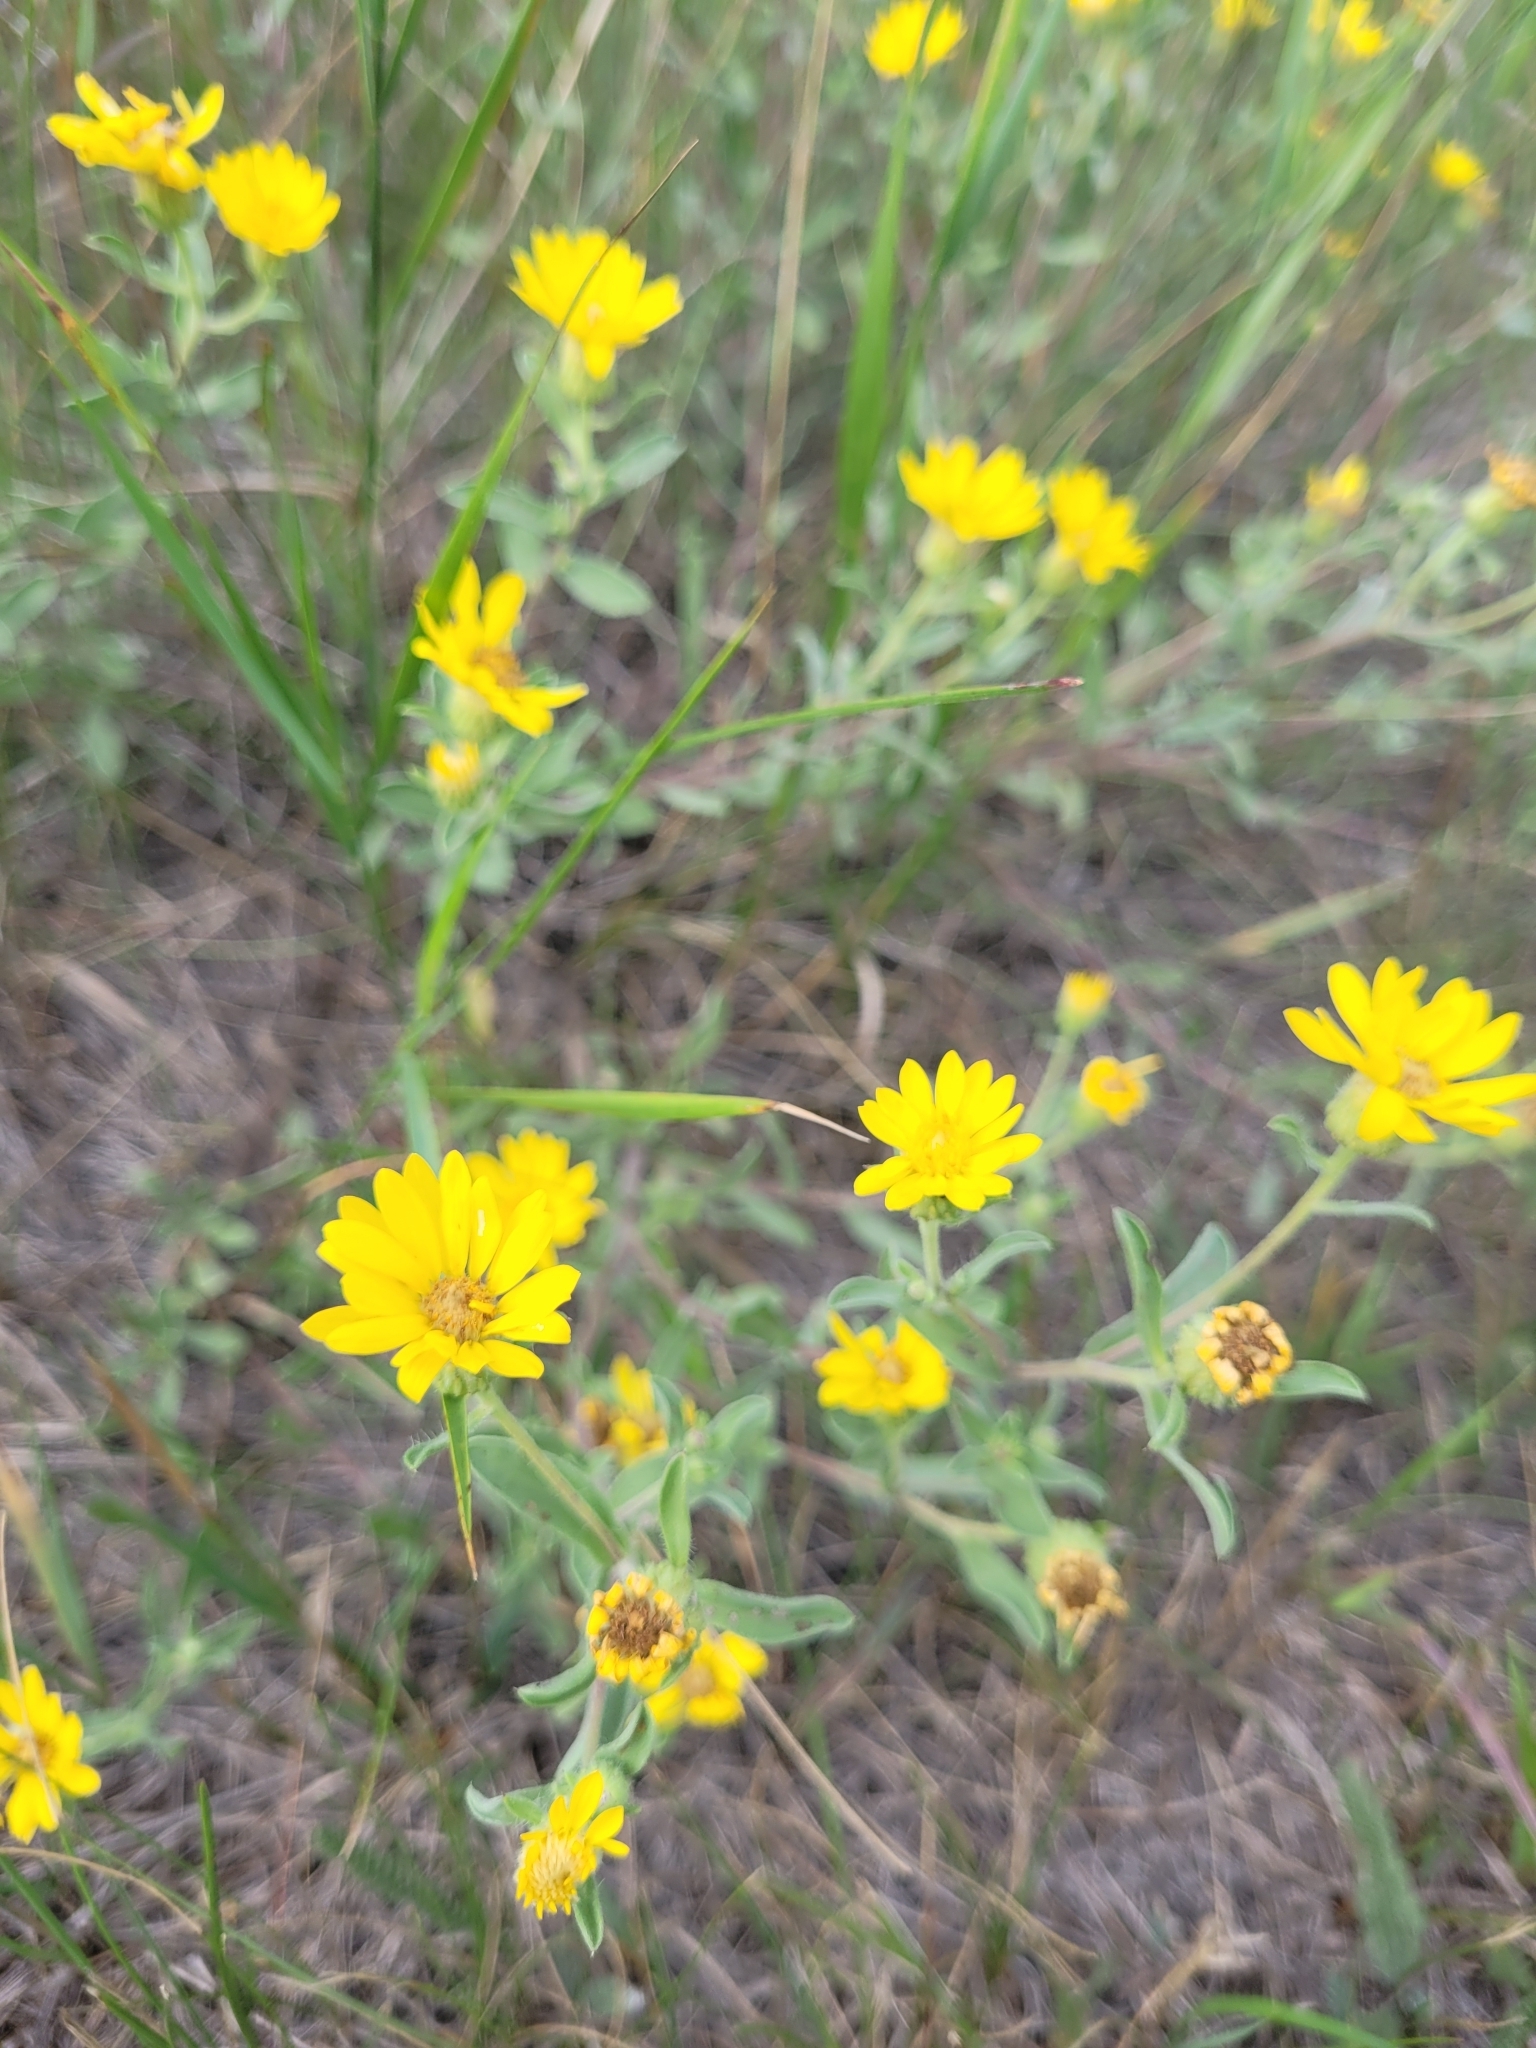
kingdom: Plantae
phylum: Tracheophyta
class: Magnoliopsida
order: Asterales
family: Asteraceae
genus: Heterotheca
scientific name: Heterotheca villosa
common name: Hairy false goldenaster
